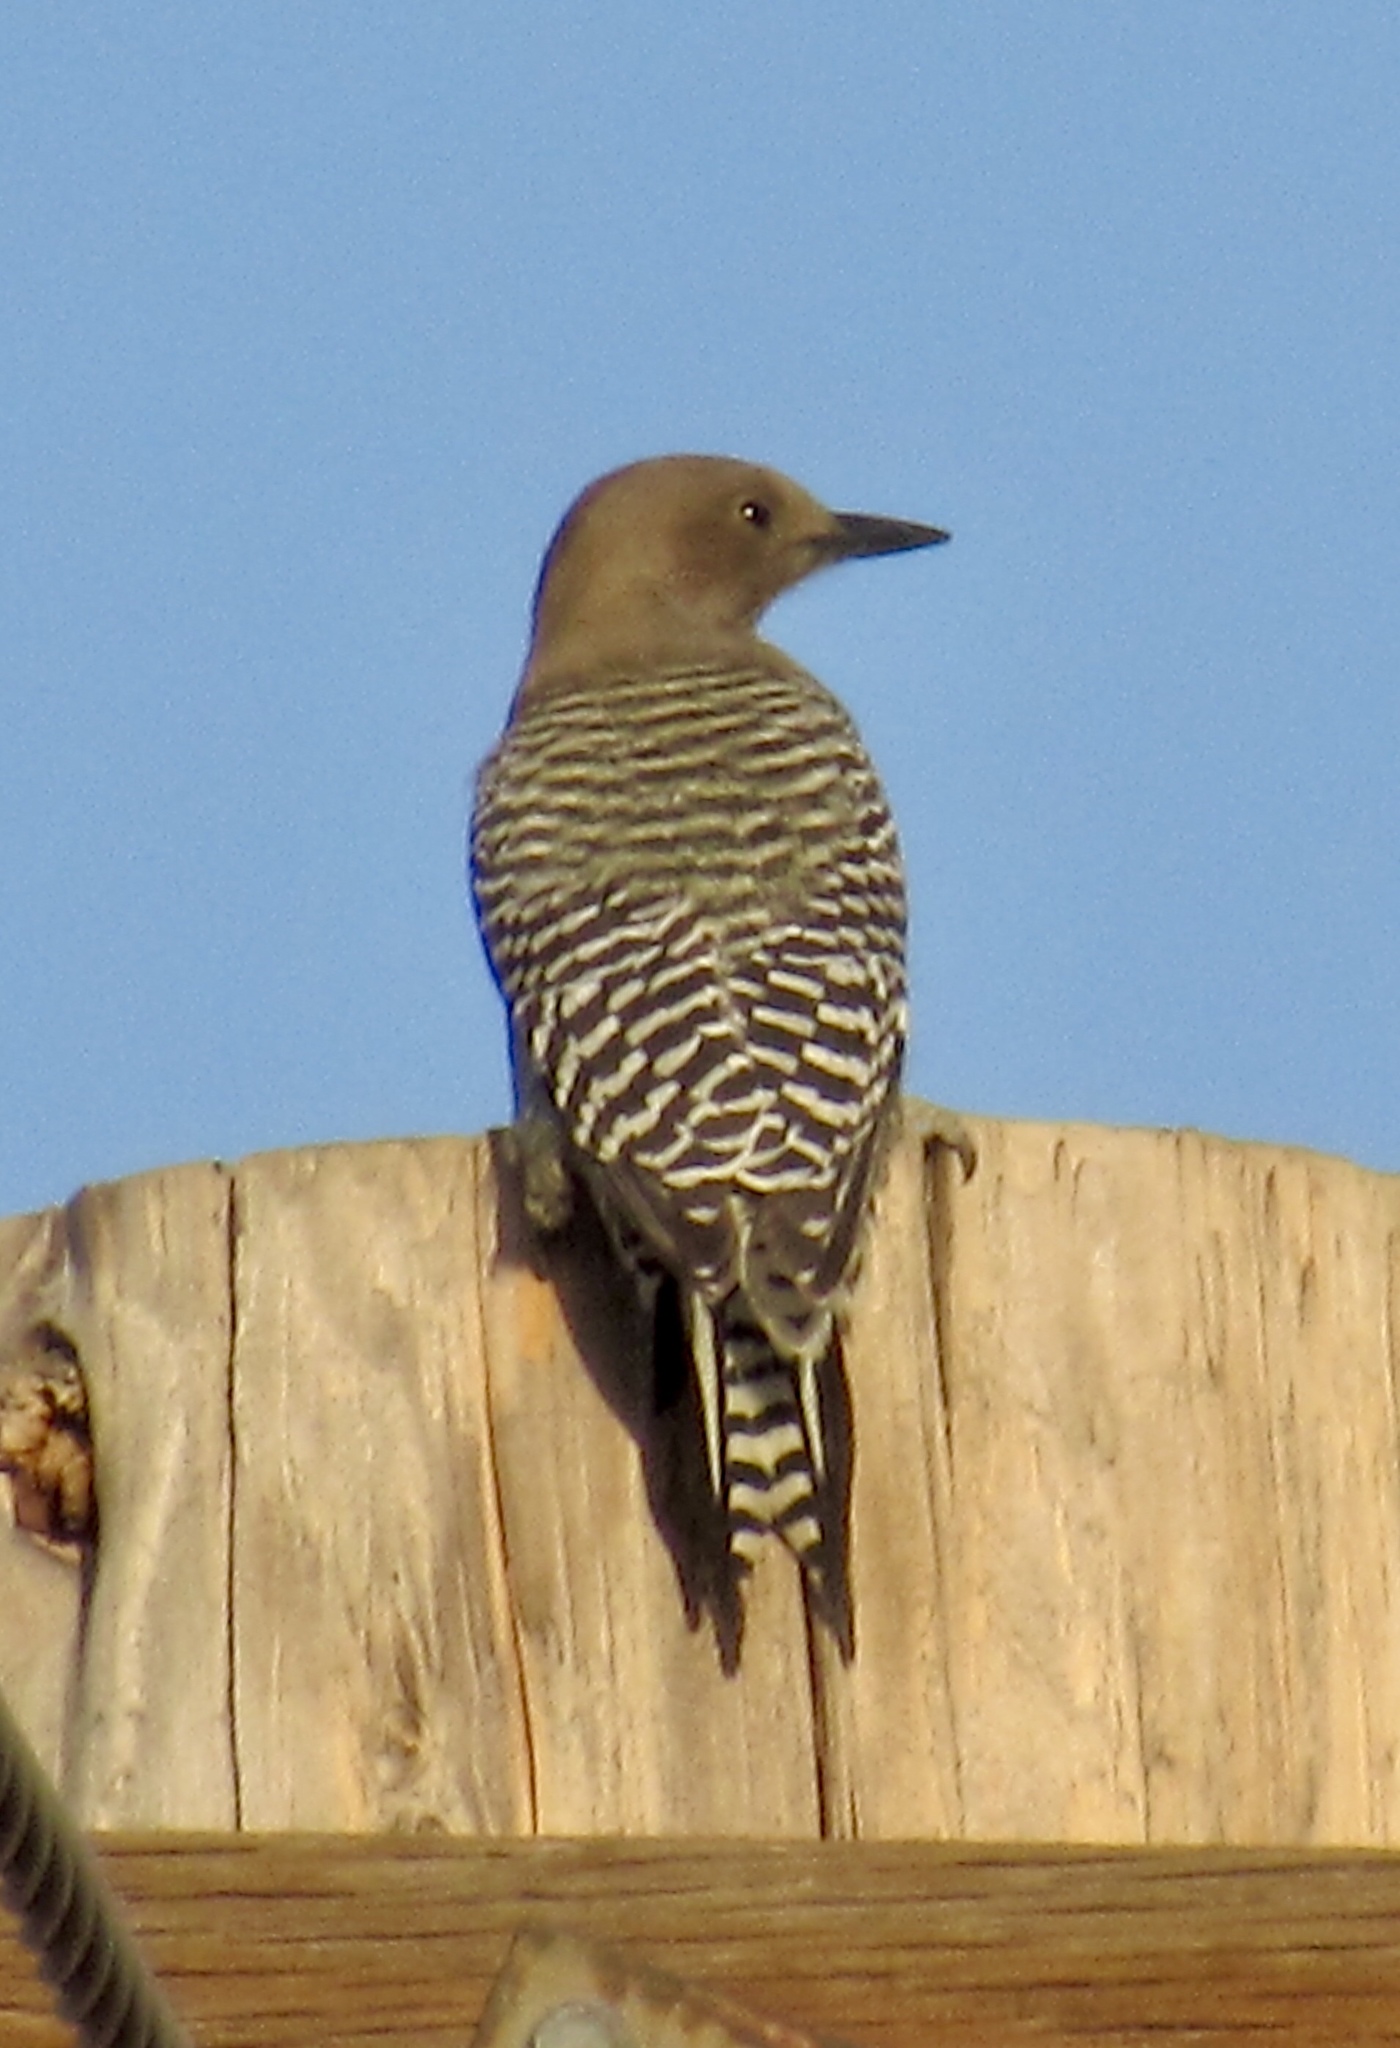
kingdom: Animalia
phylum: Chordata
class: Aves
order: Piciformes
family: Picidae
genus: Melanerpes
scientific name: Melanerpes uropygialis
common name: Gila woodpecker
